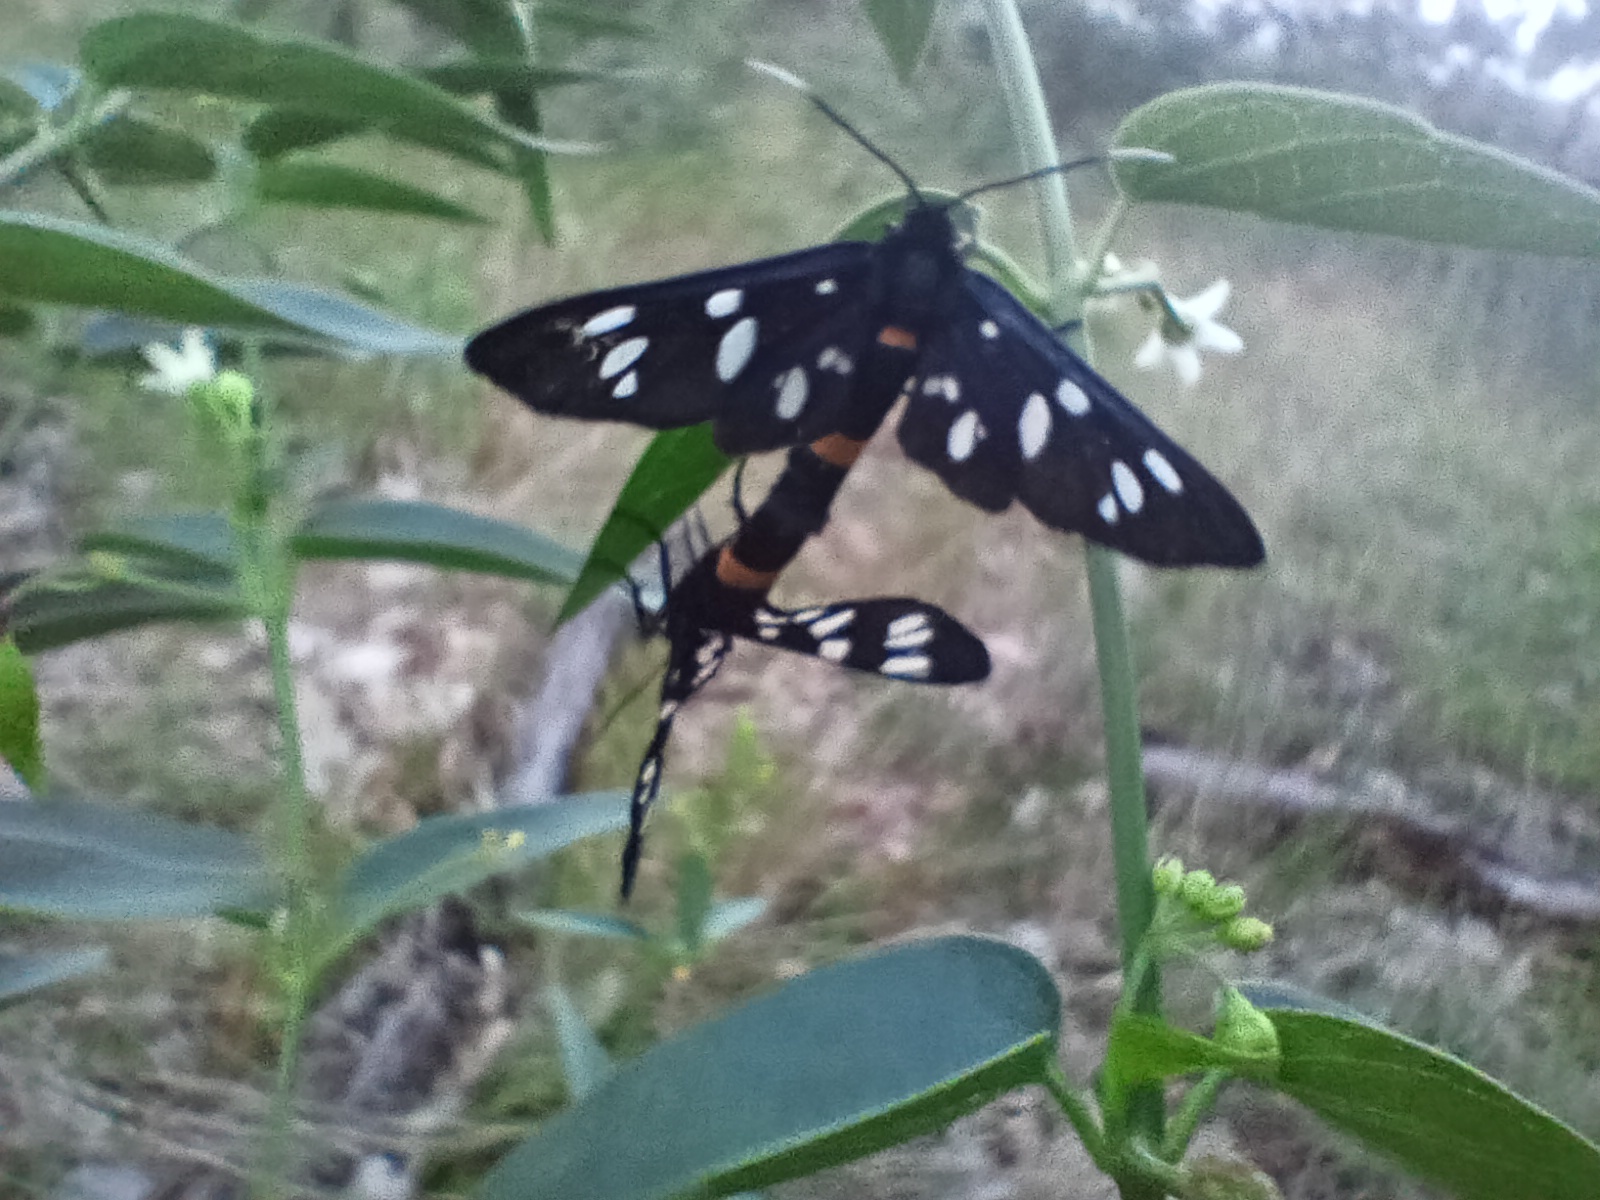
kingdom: Animalia
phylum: Arthropoda
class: Insecta
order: Lepidoptera
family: Erebidae
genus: Amata
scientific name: Amata phegea
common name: Nine-spotted
